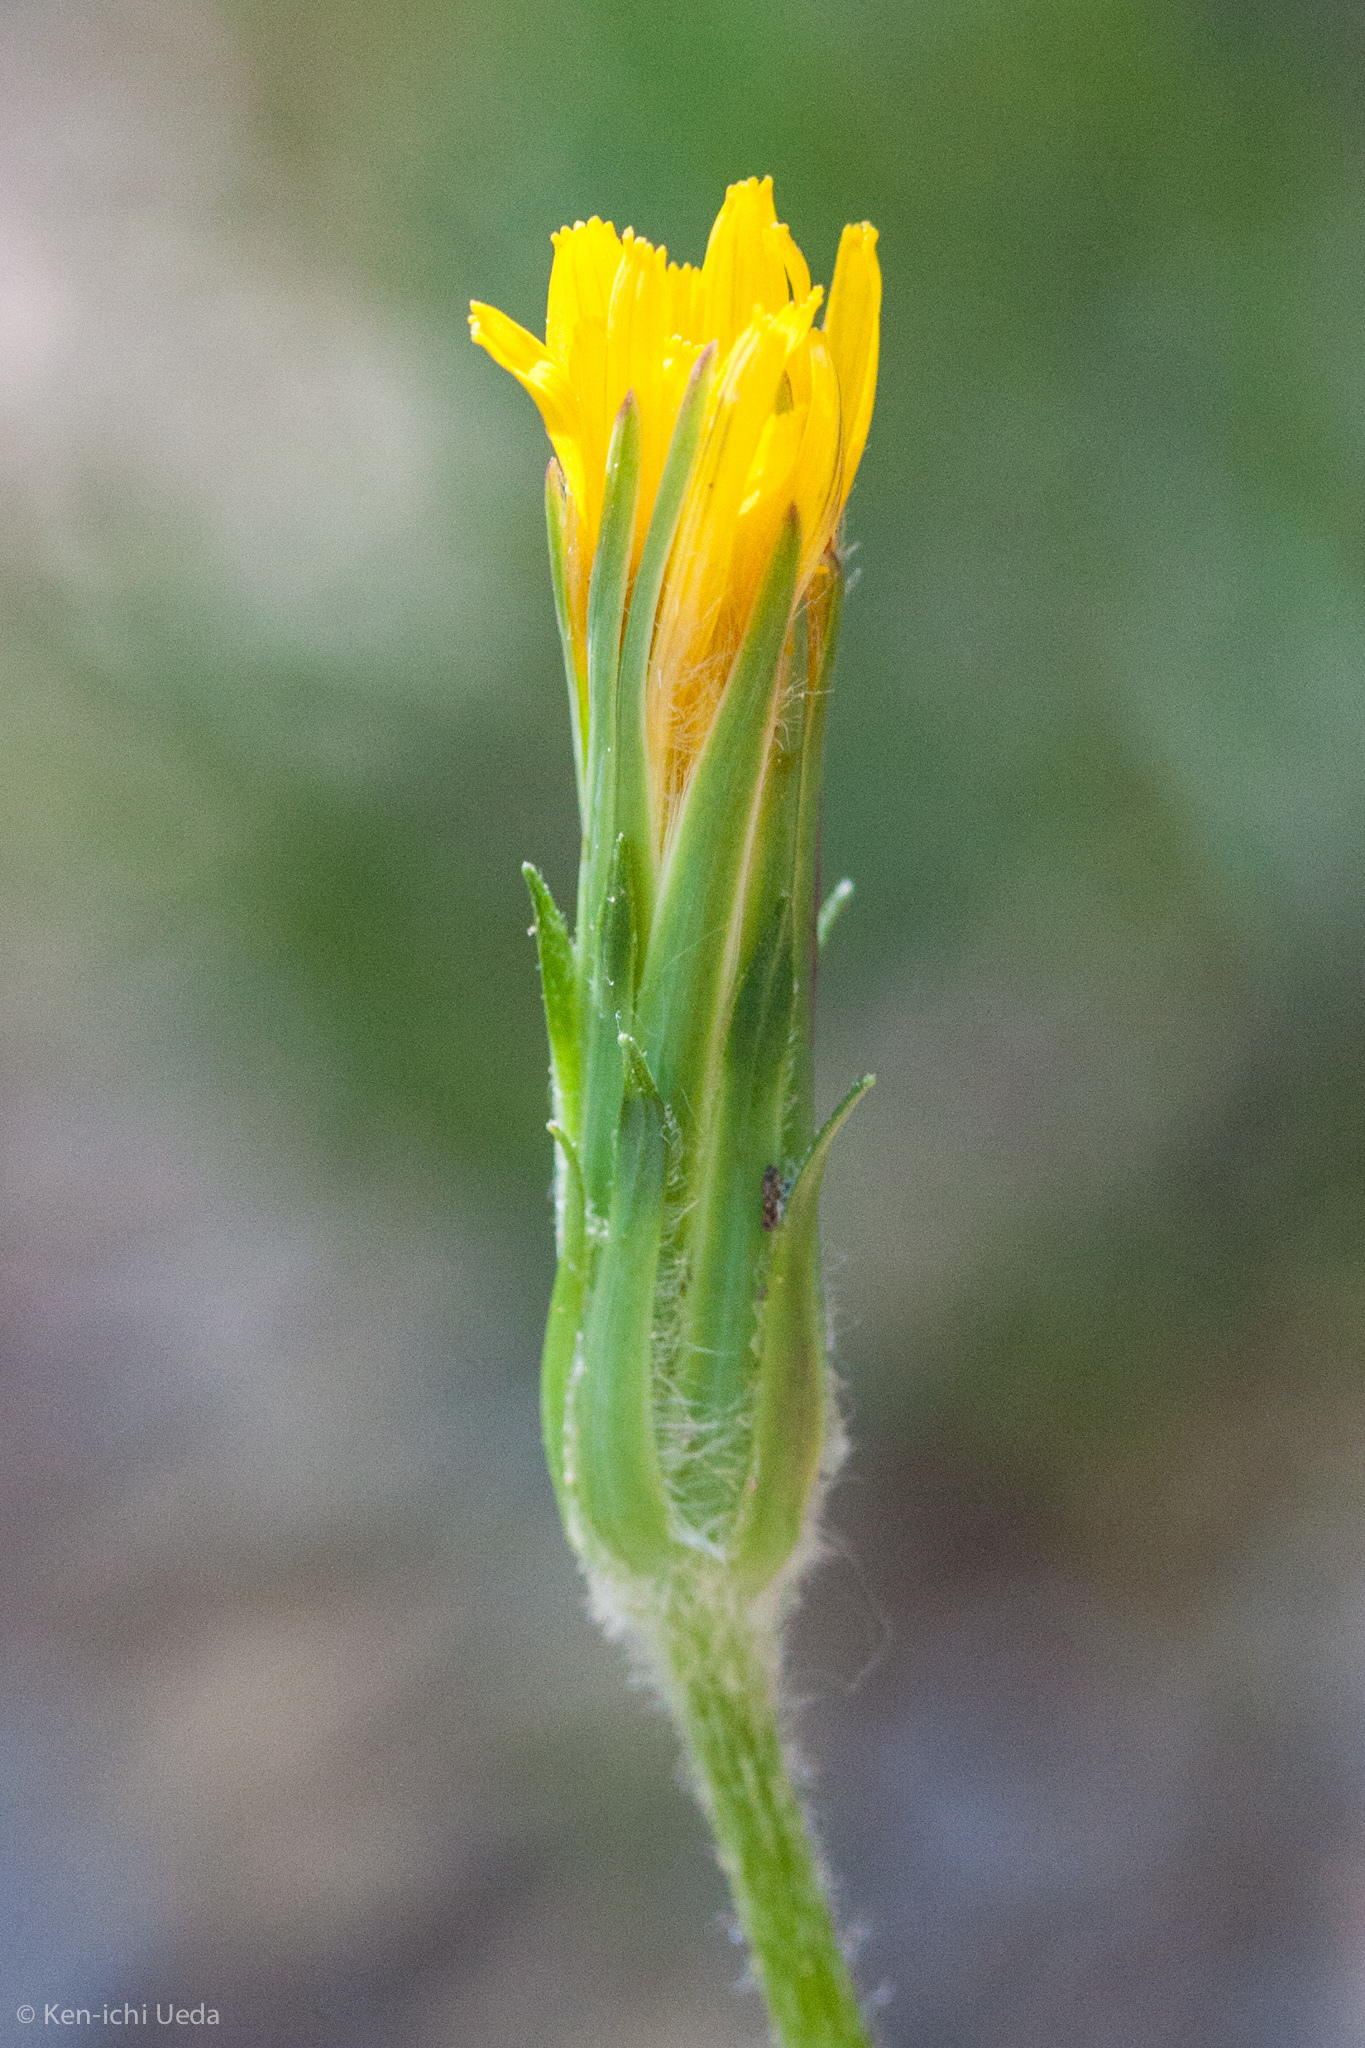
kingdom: Plantae
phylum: Tracheophyta
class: Magnoliopsida
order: Asterales
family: Asteraceae
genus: Agoseris
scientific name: Agoseris retrorsa
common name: Spearleaf agoseris
